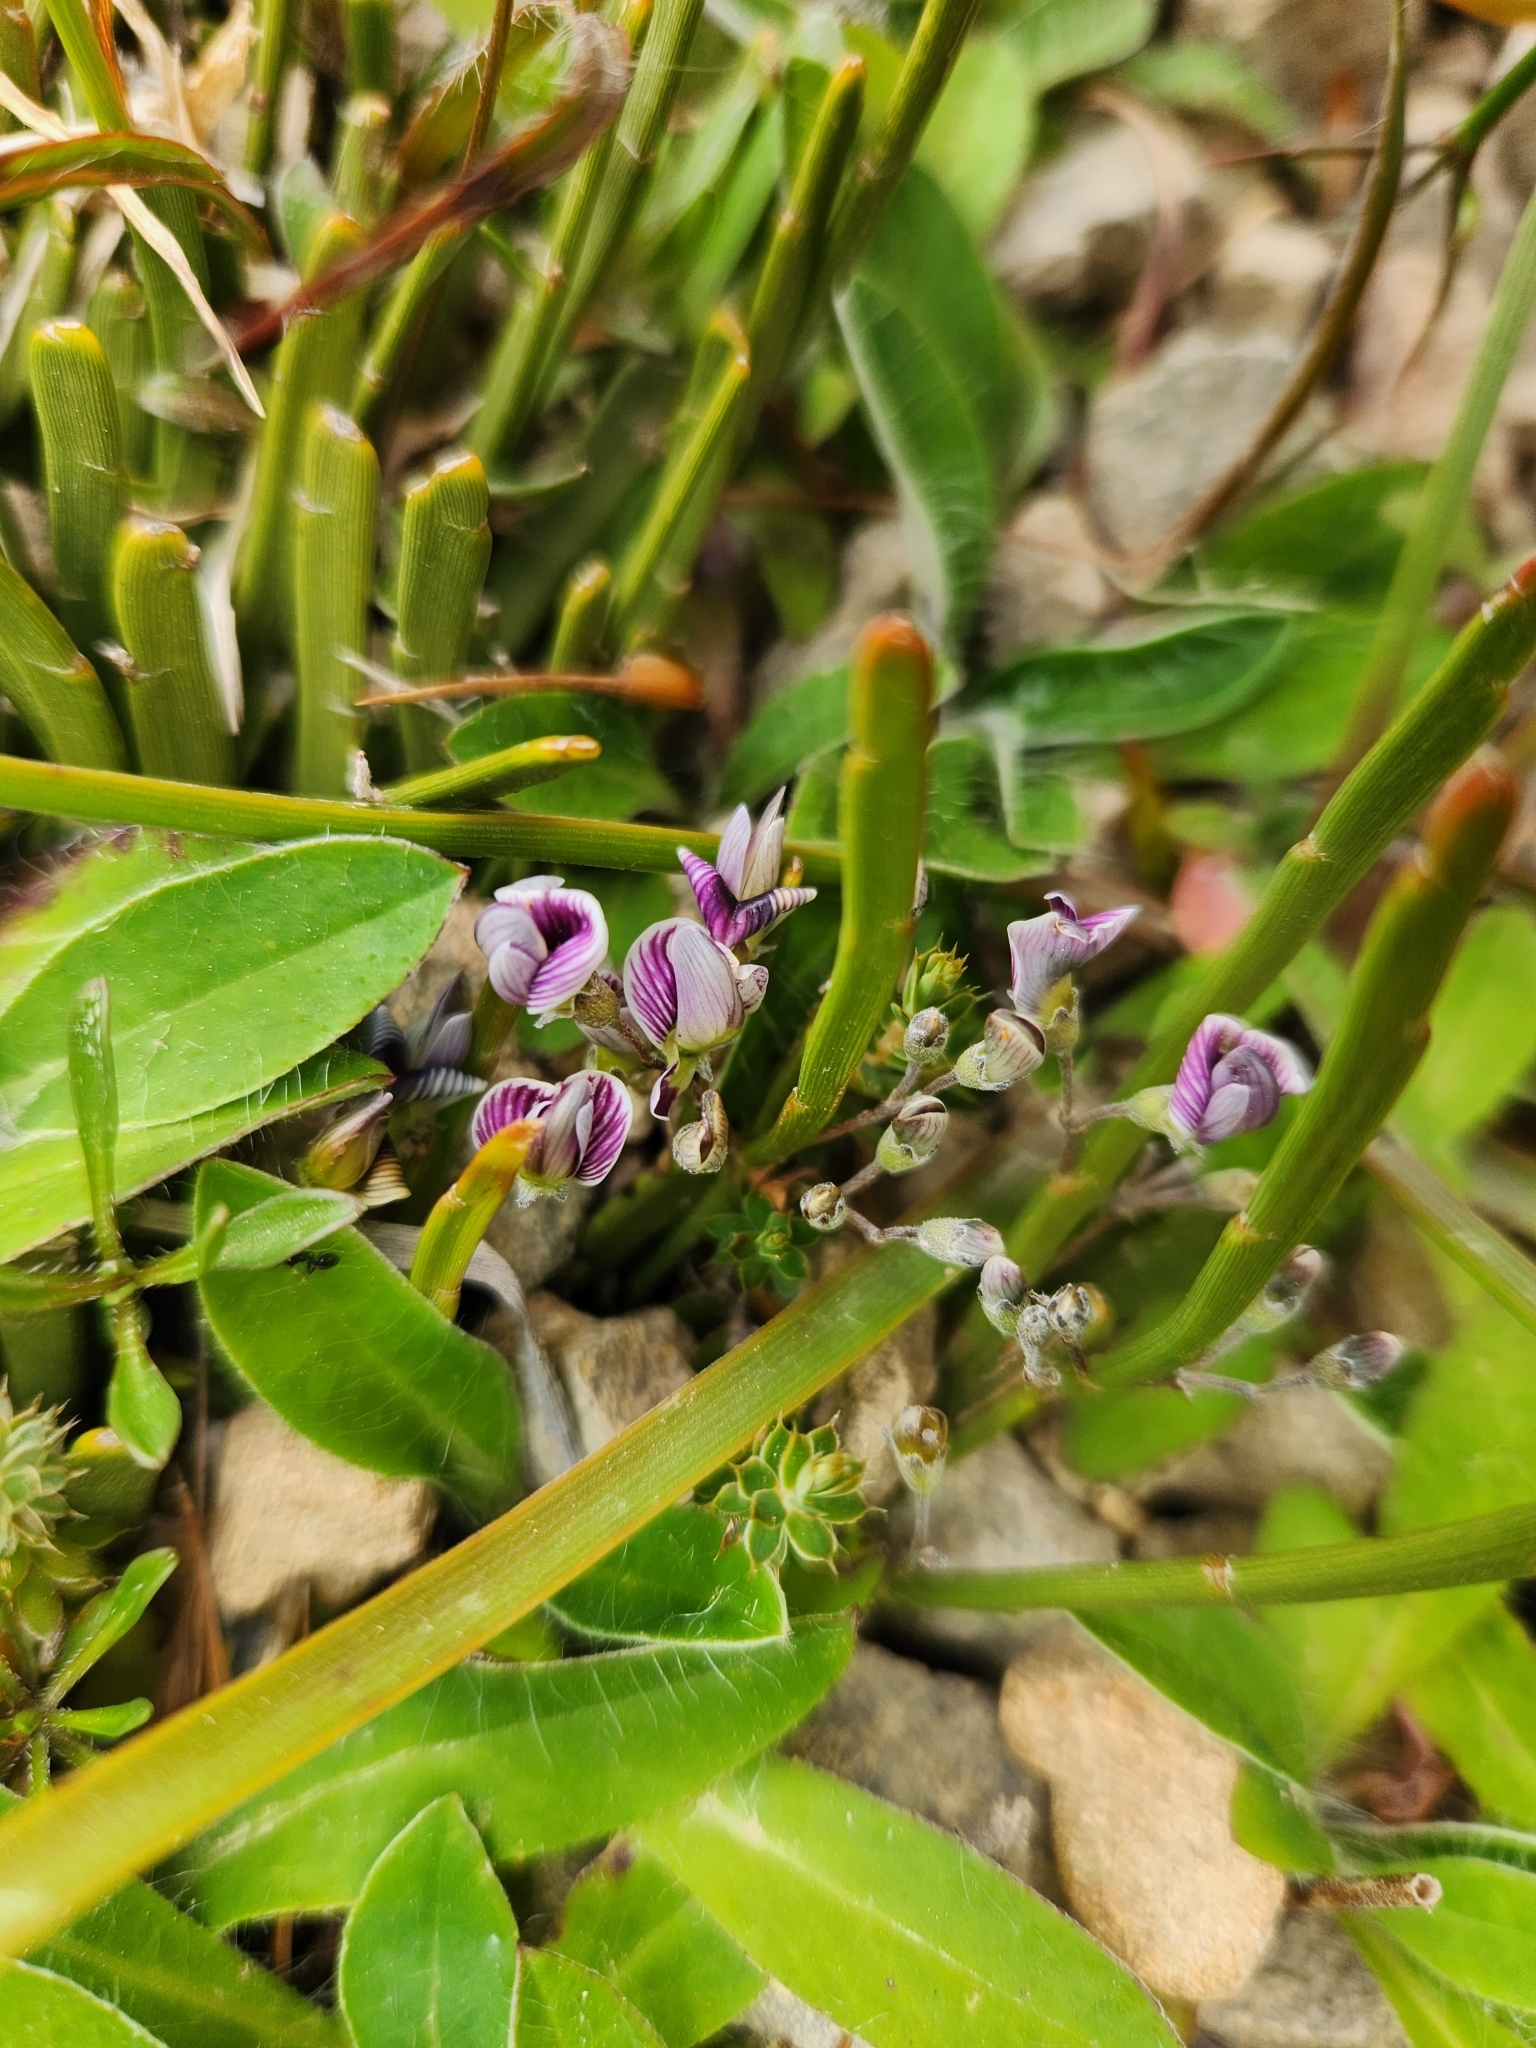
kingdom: Plantae
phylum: Tracheophyta
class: Magnoliopsida
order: Fabales
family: Fabaceae
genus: Carmichaelia
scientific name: Carmichaelia monroi
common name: Stout dwarf broom
